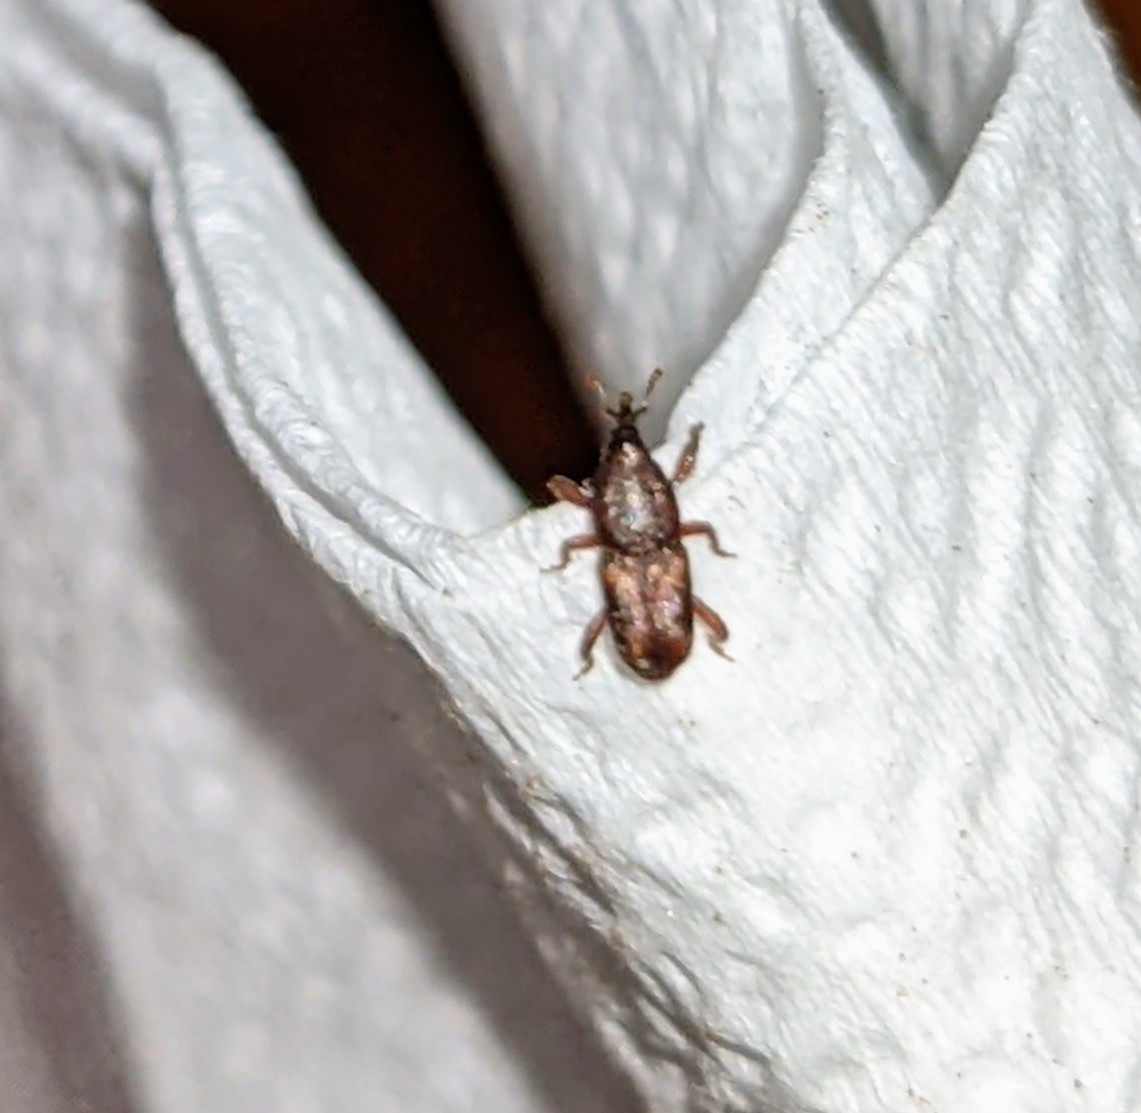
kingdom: Animalia
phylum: Arthropoda
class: Insecta
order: Coleoptera
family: Dryophthoridae
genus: Sitophilus
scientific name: Sitophilus
